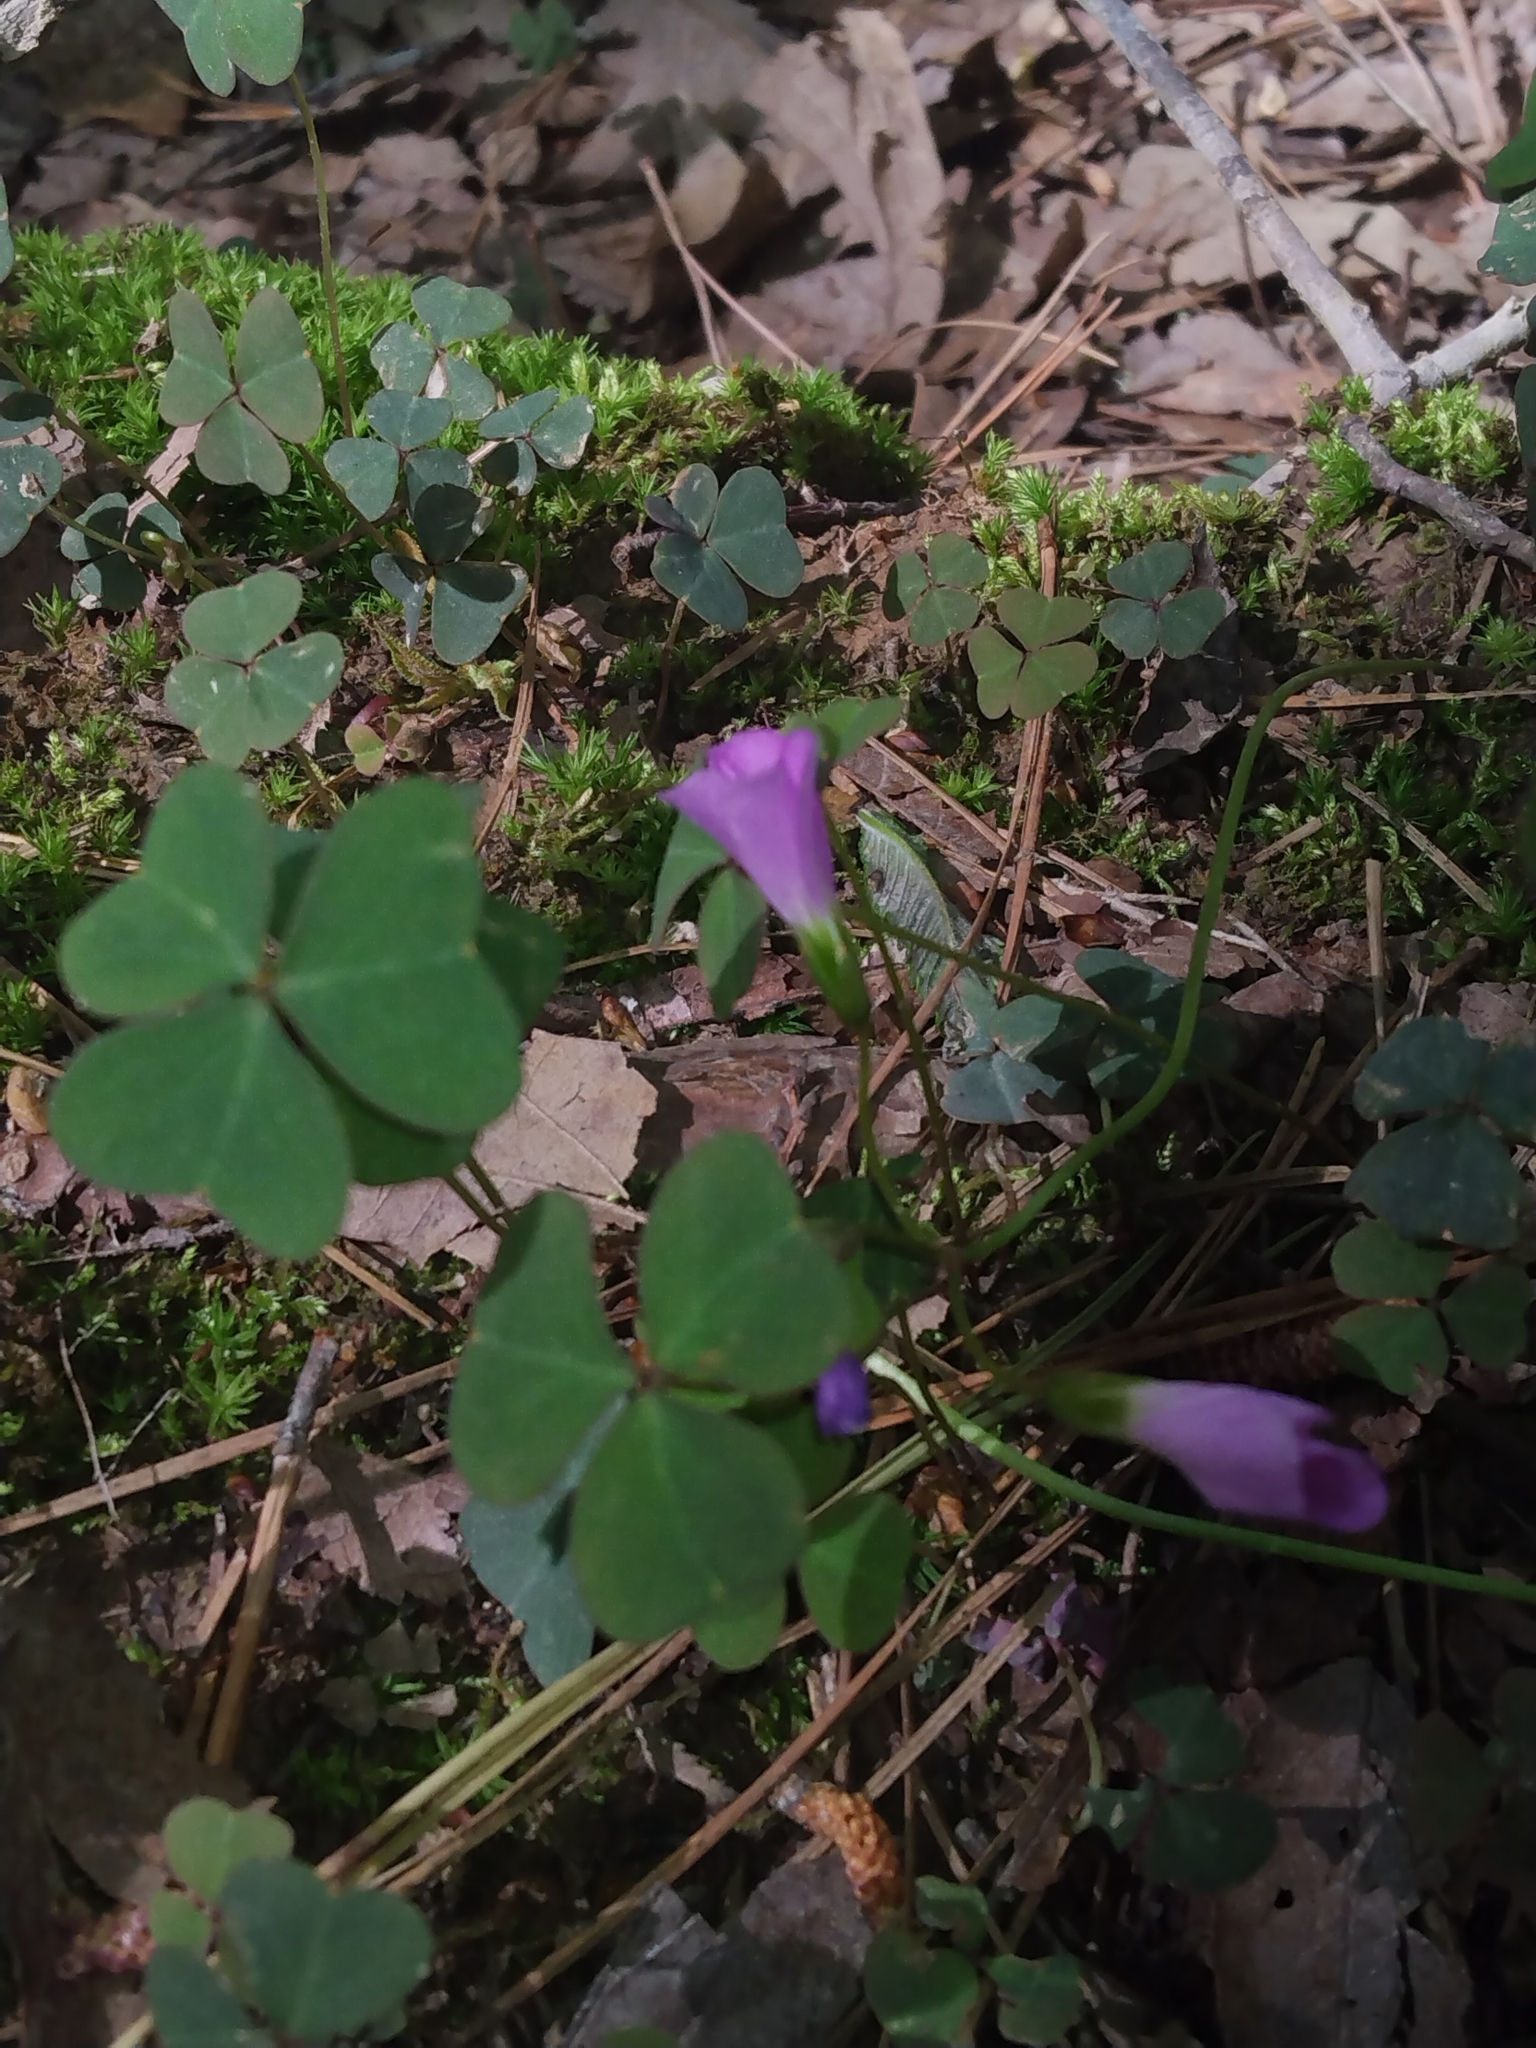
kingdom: Plantae
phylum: Tracheophyta
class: Magnoliopsida
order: Oxalidales
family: Oxalidaceae
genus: Oxalis
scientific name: Oxalis violacea
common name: Violet wood-sorrel
